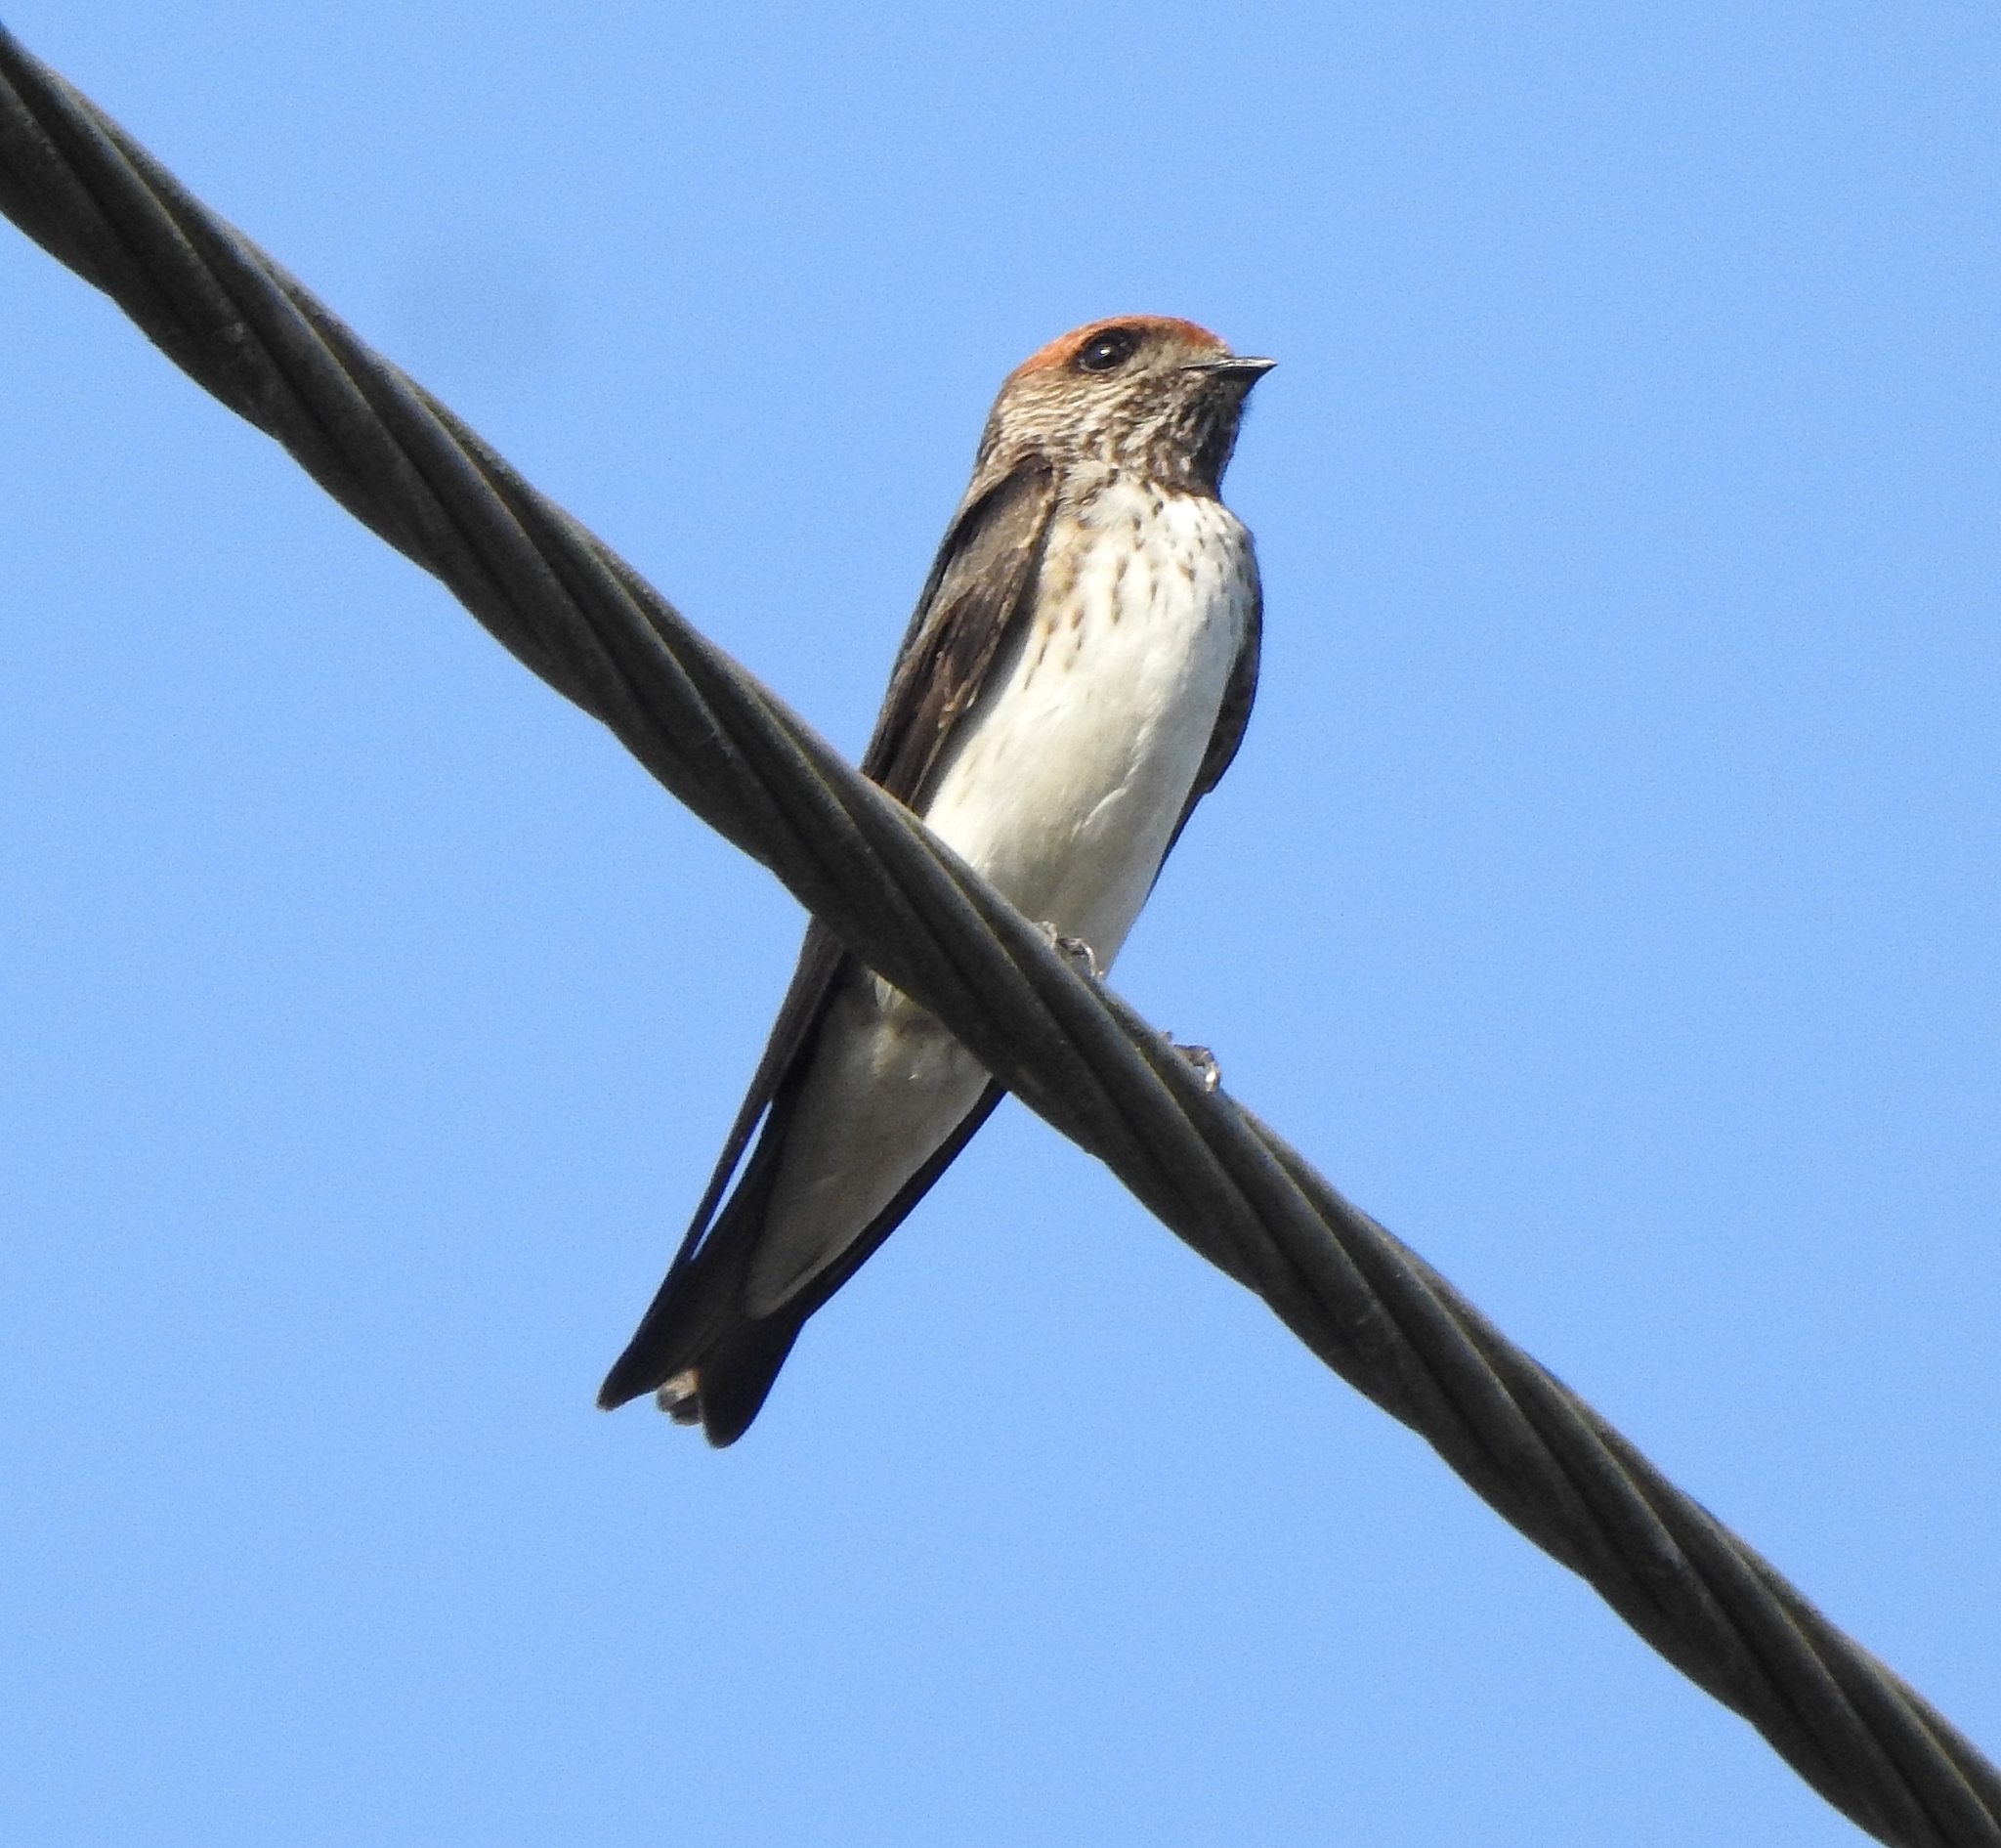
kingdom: Animalia
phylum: Chordata
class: Aves
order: Passeriformes
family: Hirundinidae
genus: Petrochelidon
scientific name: Petrochelidon fluvicola
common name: Streak-throated swallow
